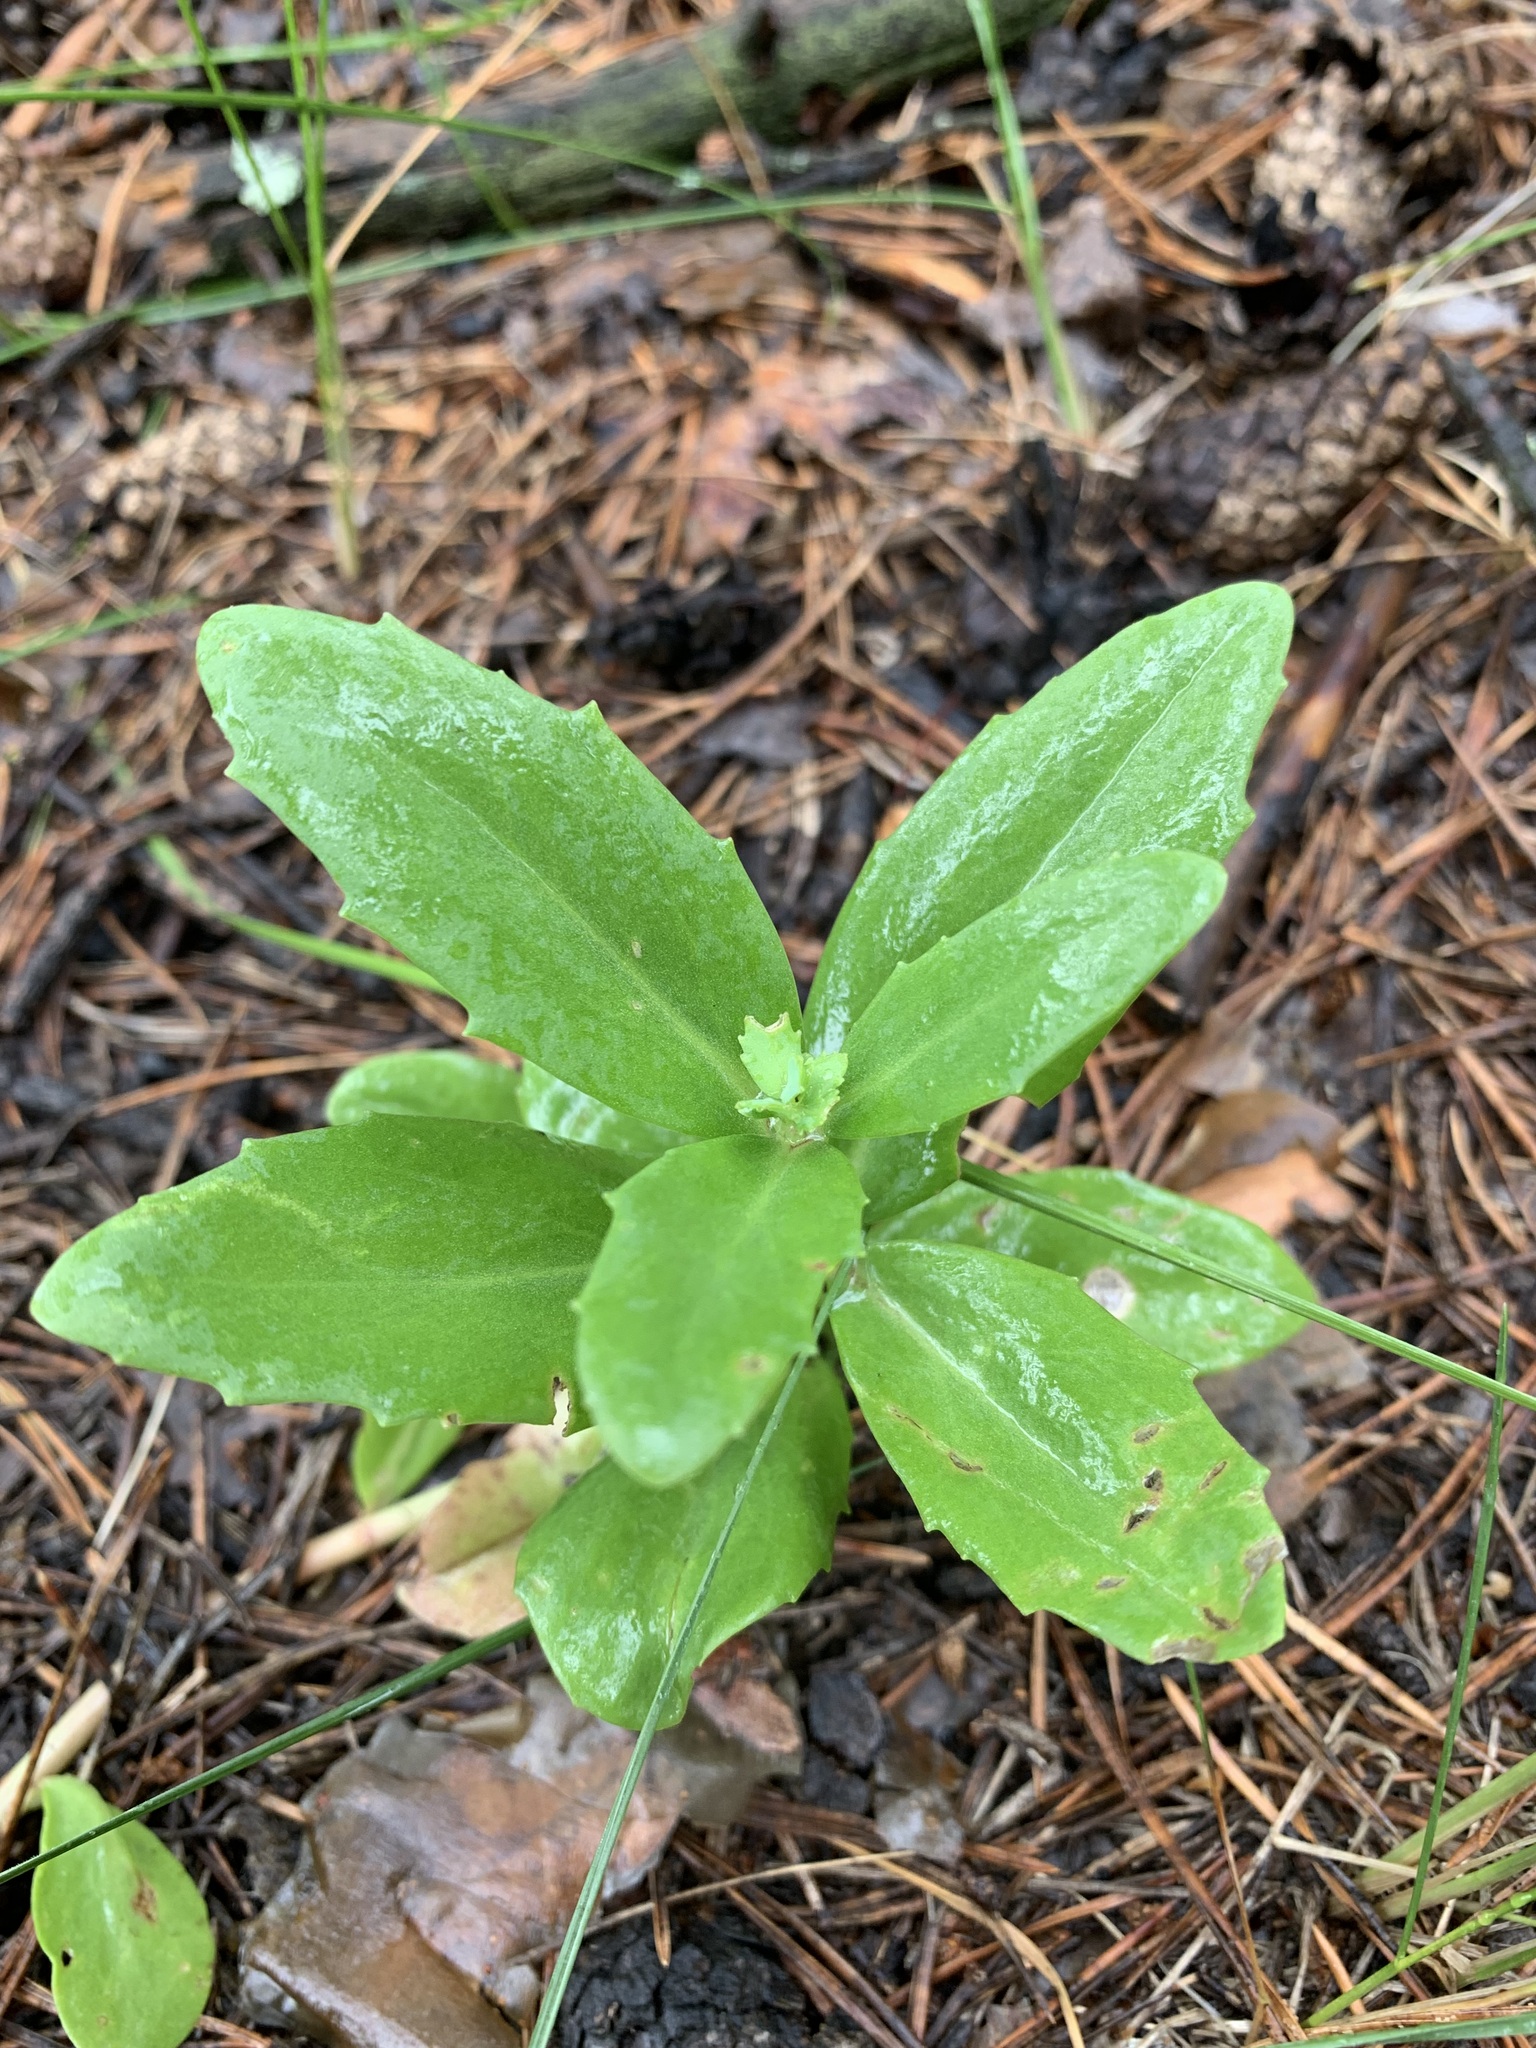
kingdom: Plantae
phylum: Tracheophyta
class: Magnoliopsida
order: Saxifragales
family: Crassulaceae
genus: Hylotelephium
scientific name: Hylotelephium telephium
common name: Live-forever
